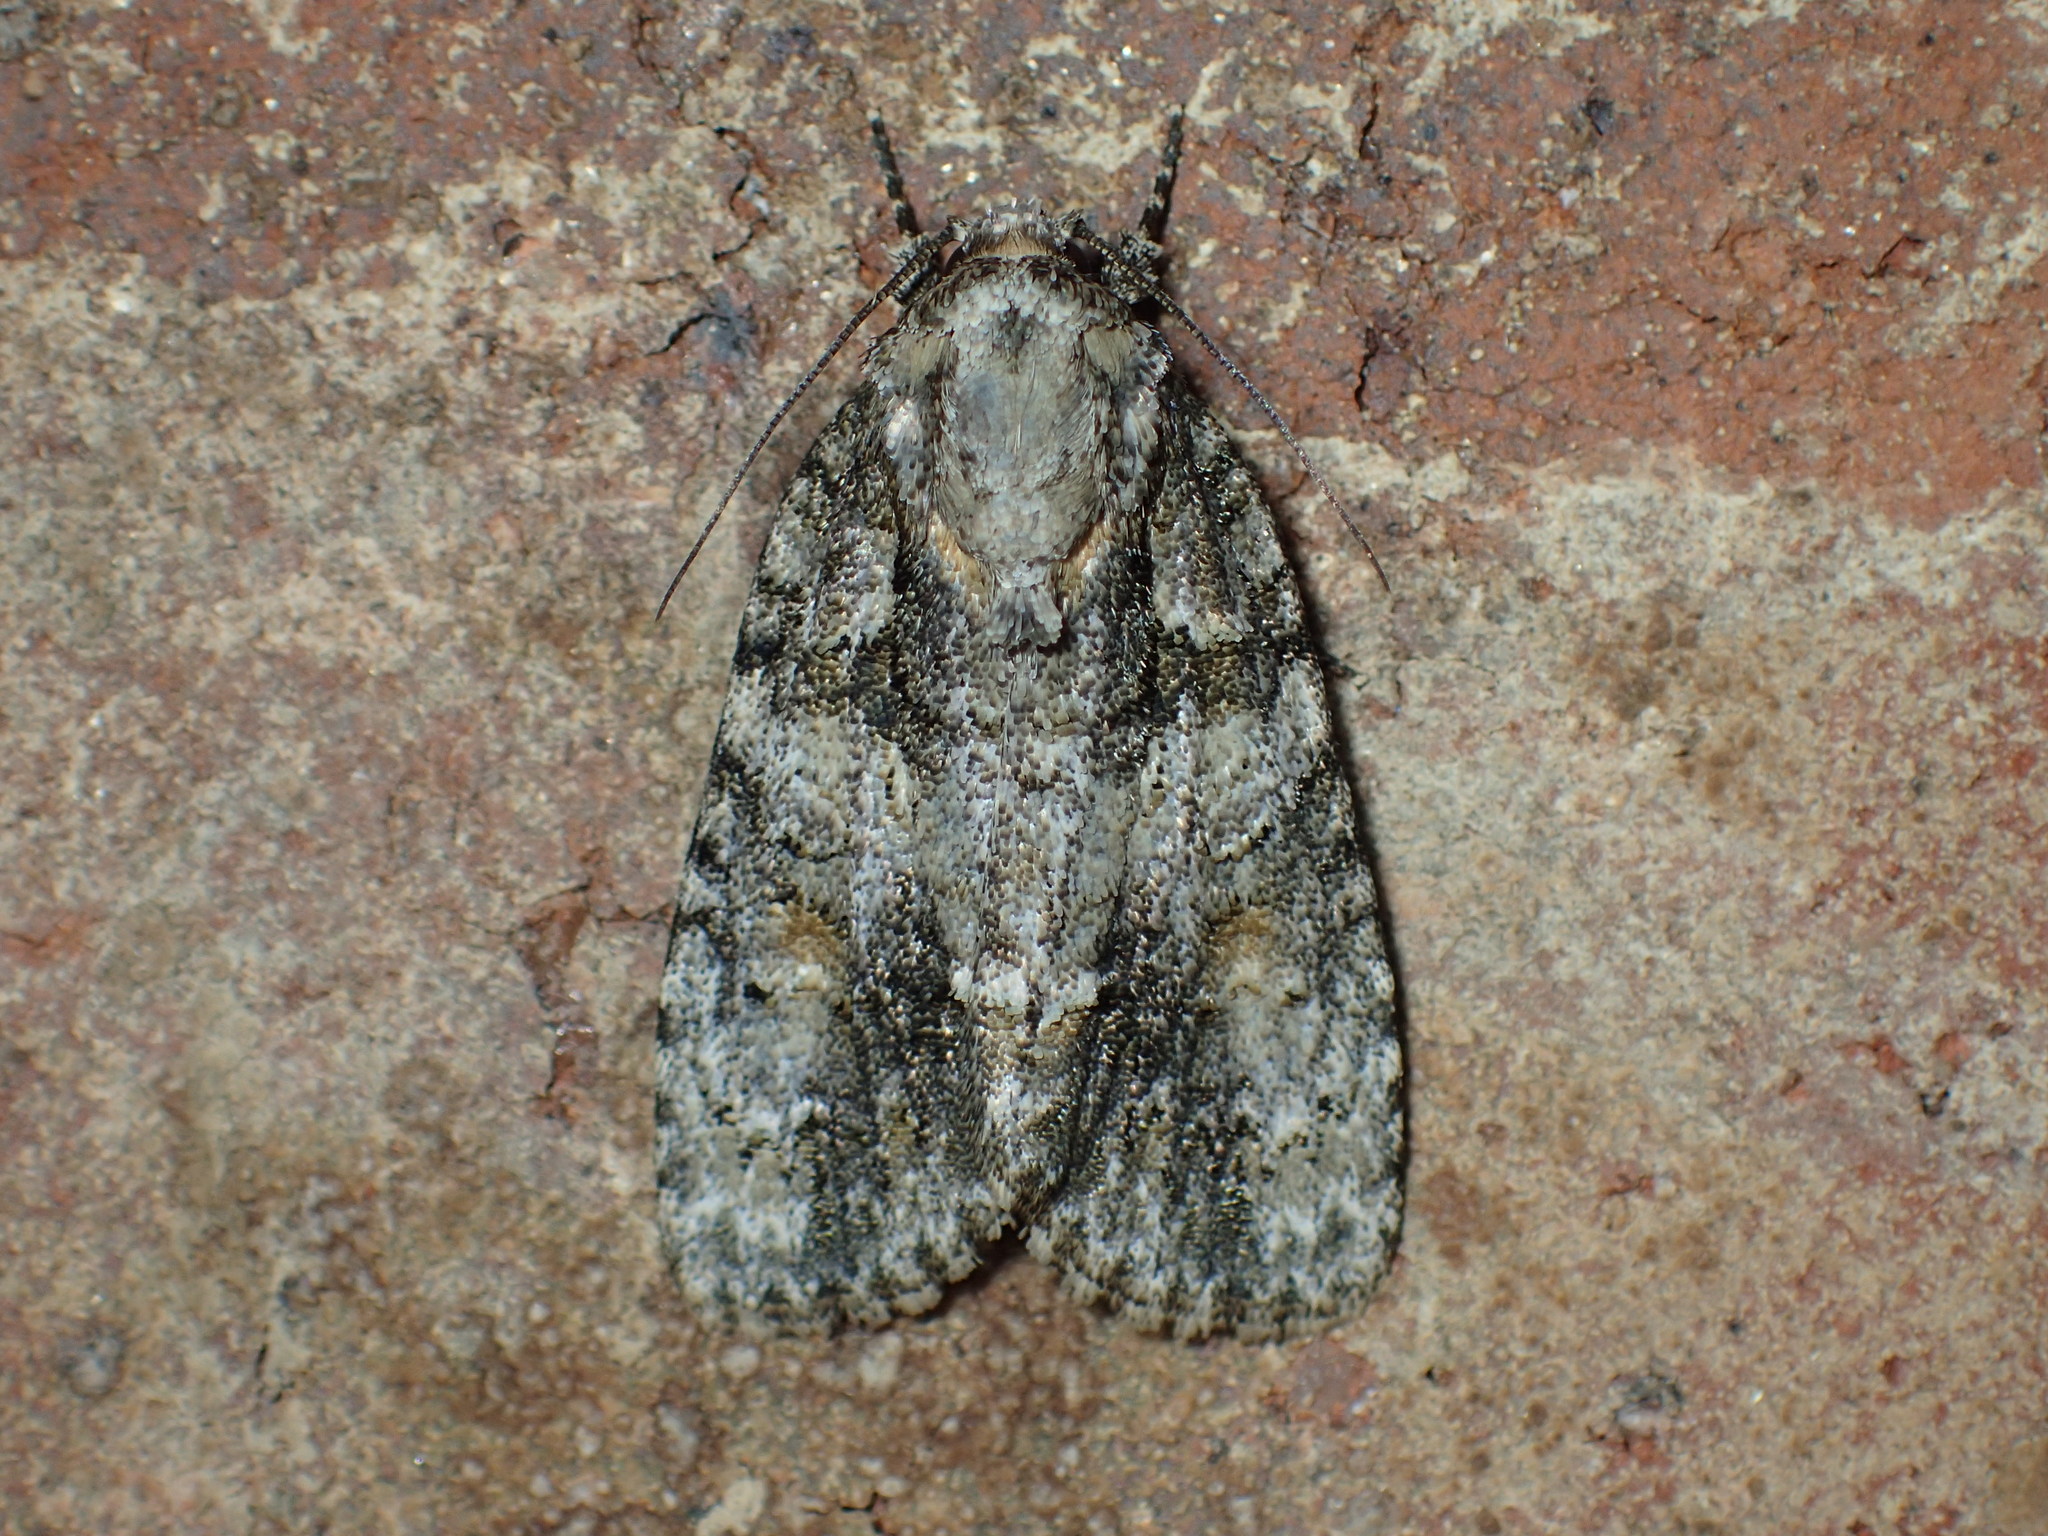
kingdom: Animalia
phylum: Arthropoda
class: Insecta
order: Lepidoptera
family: Noctuidae
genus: Acronicta
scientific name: Acronicta increta
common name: Eclipsed oak dagger
